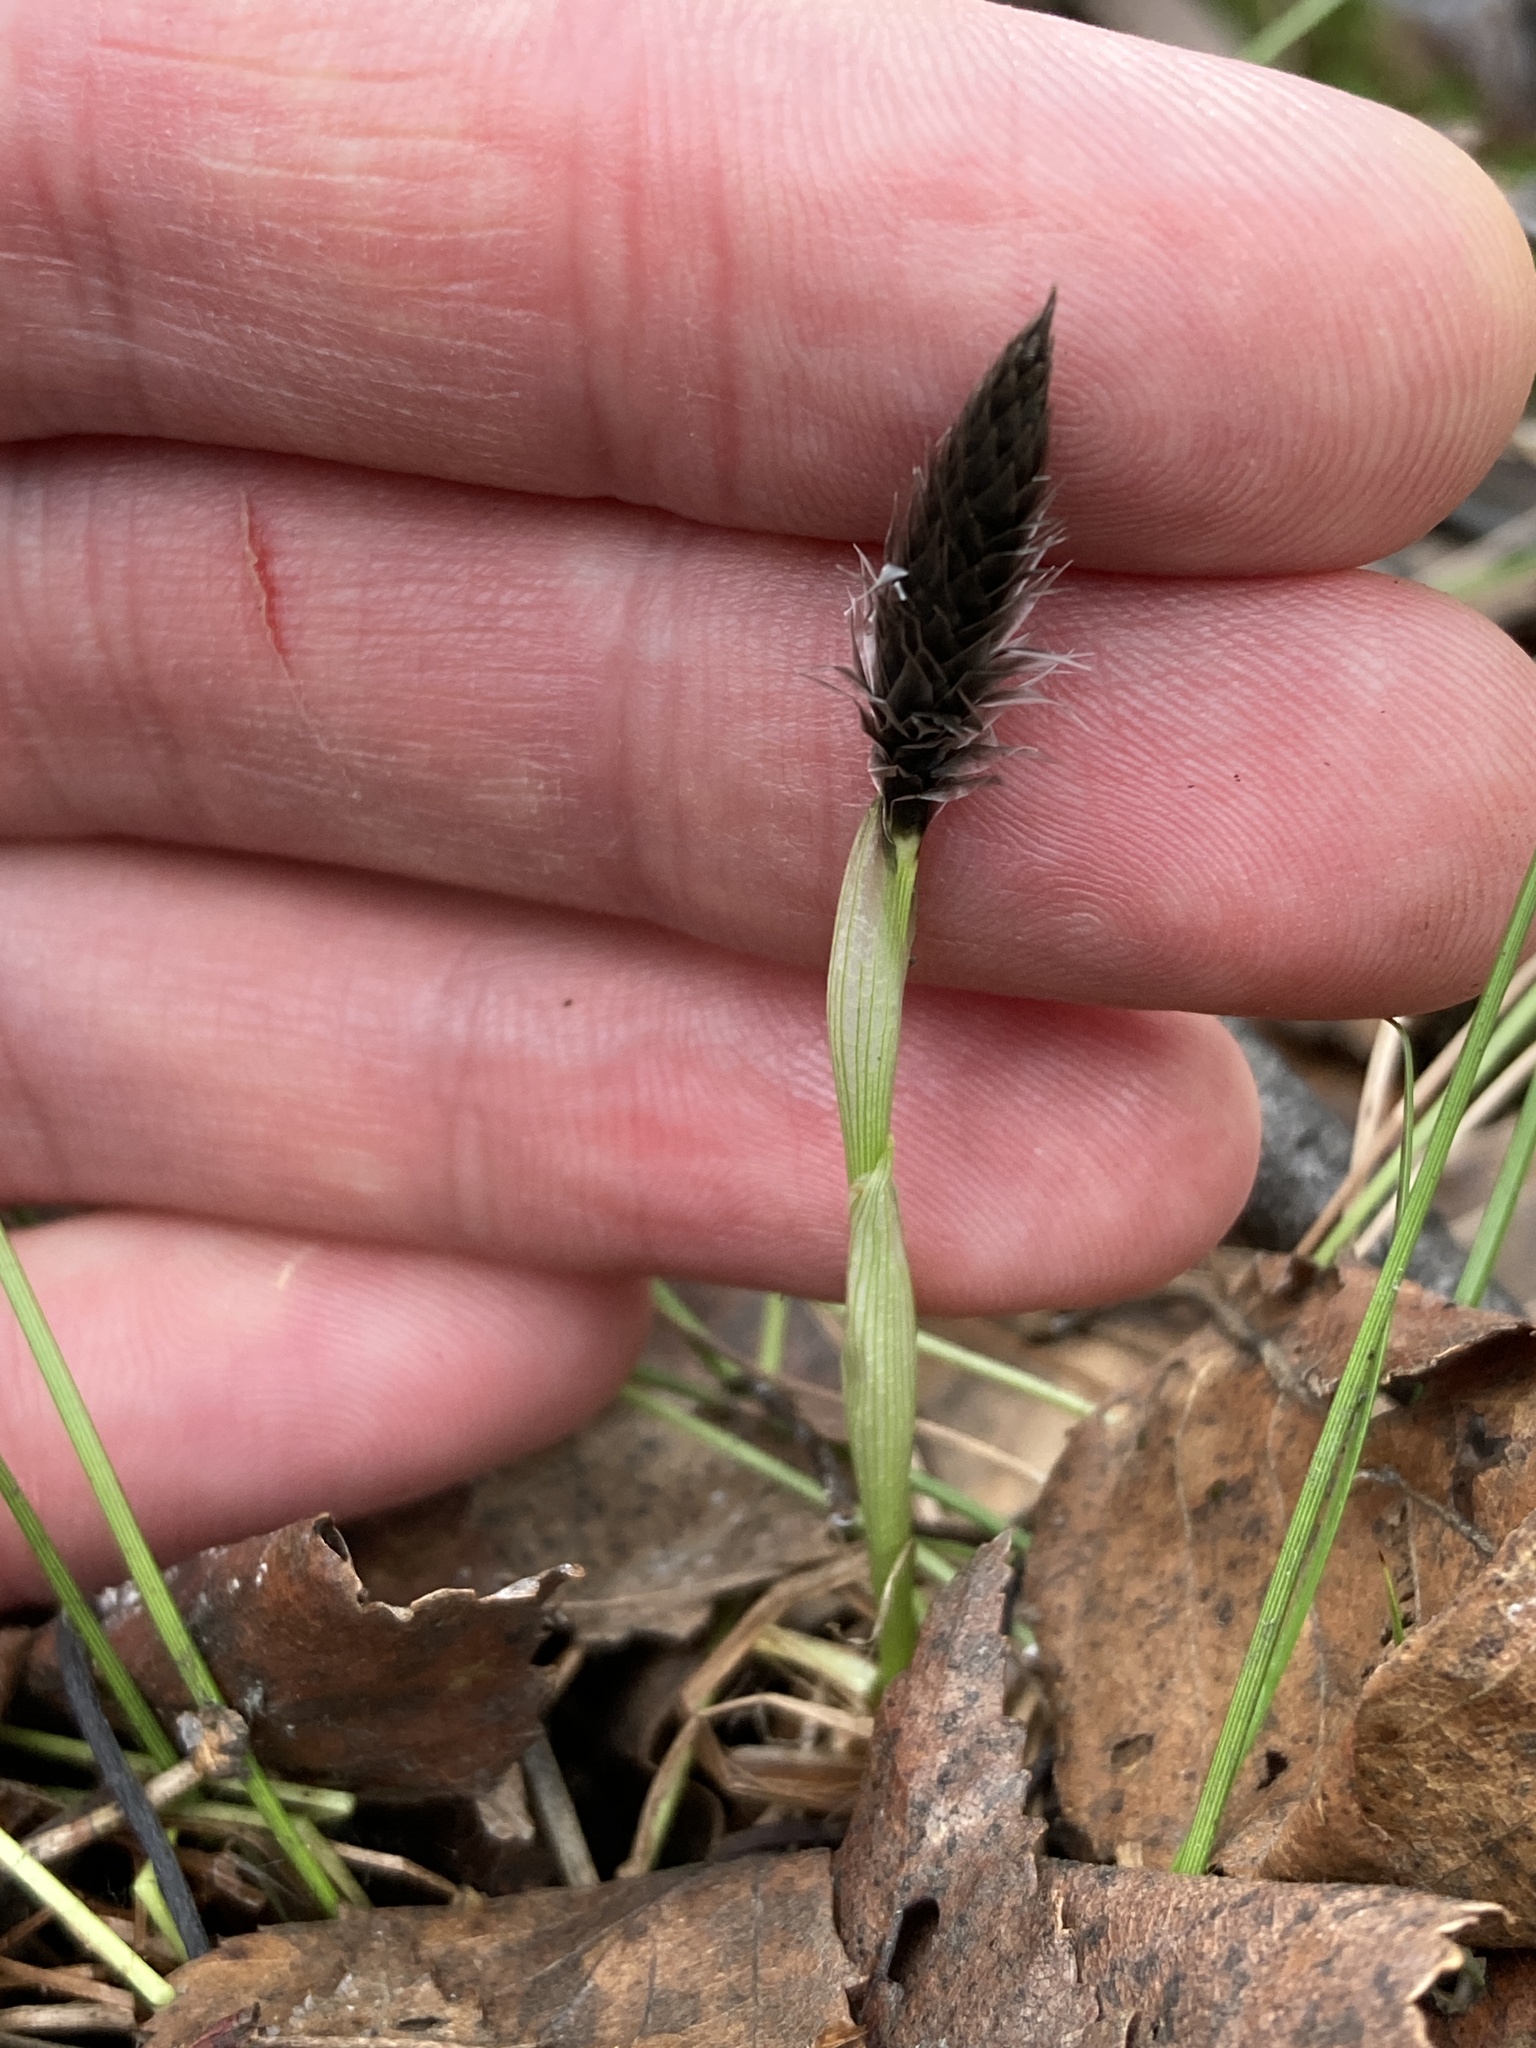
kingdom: Plantae
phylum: Tracheophyta
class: Liliopsida
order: Poales
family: Cyperaceae
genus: Eriophorum
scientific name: Eriophorum vaginatum
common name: Hare's-tail cottongrass
